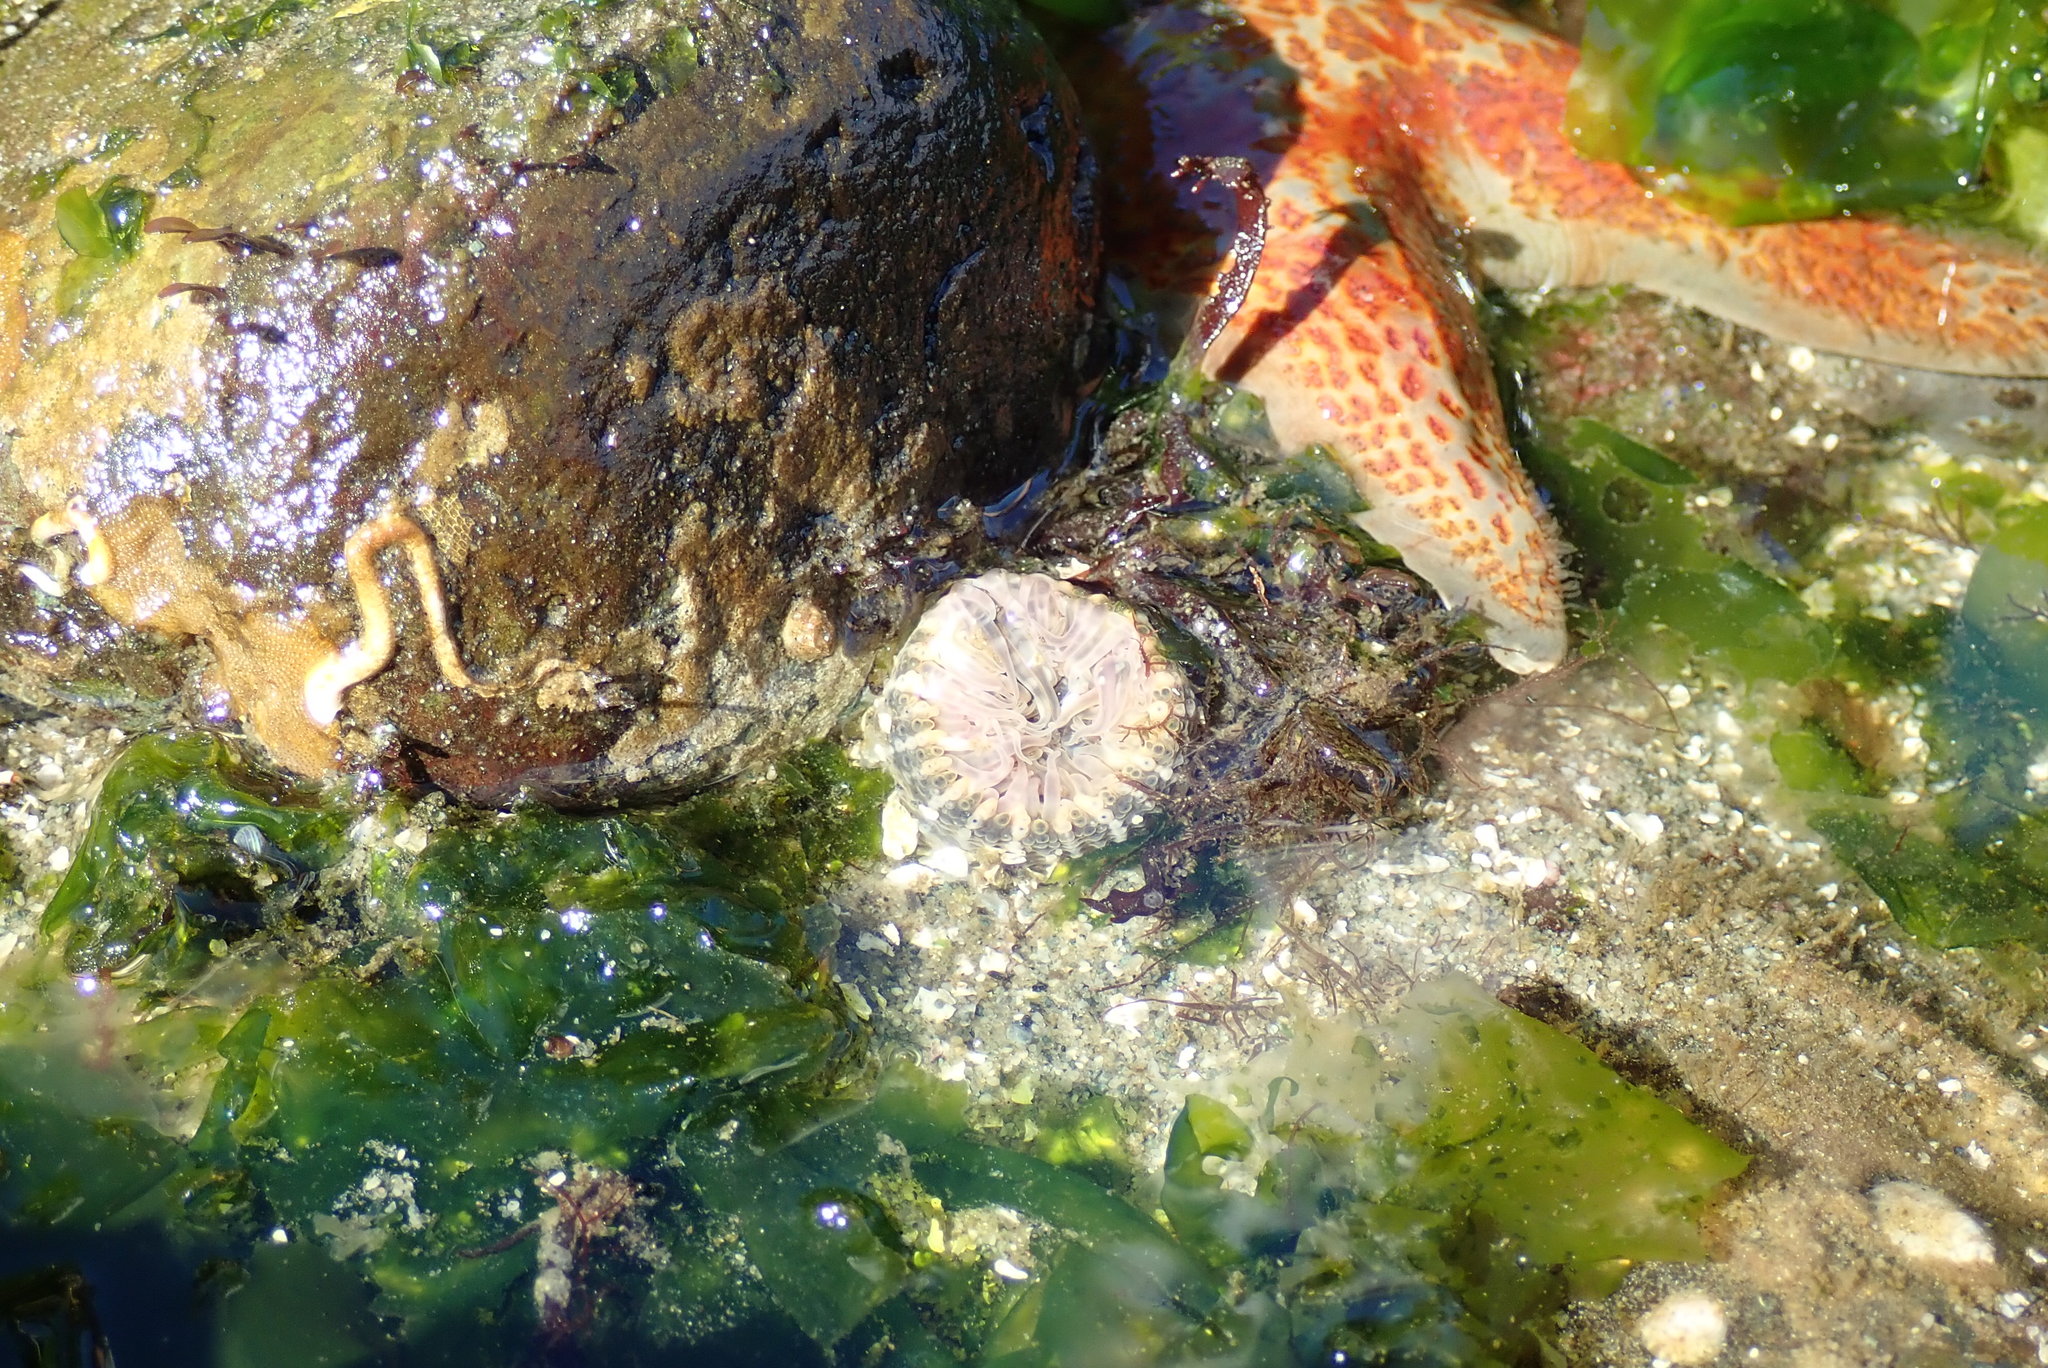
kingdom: Animalia
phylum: Cnidaria
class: Anthozoa
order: Actiniaria
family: Actiniidae
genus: Anthopleura
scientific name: Anthopleura artemisia
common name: Buried sea anemone
